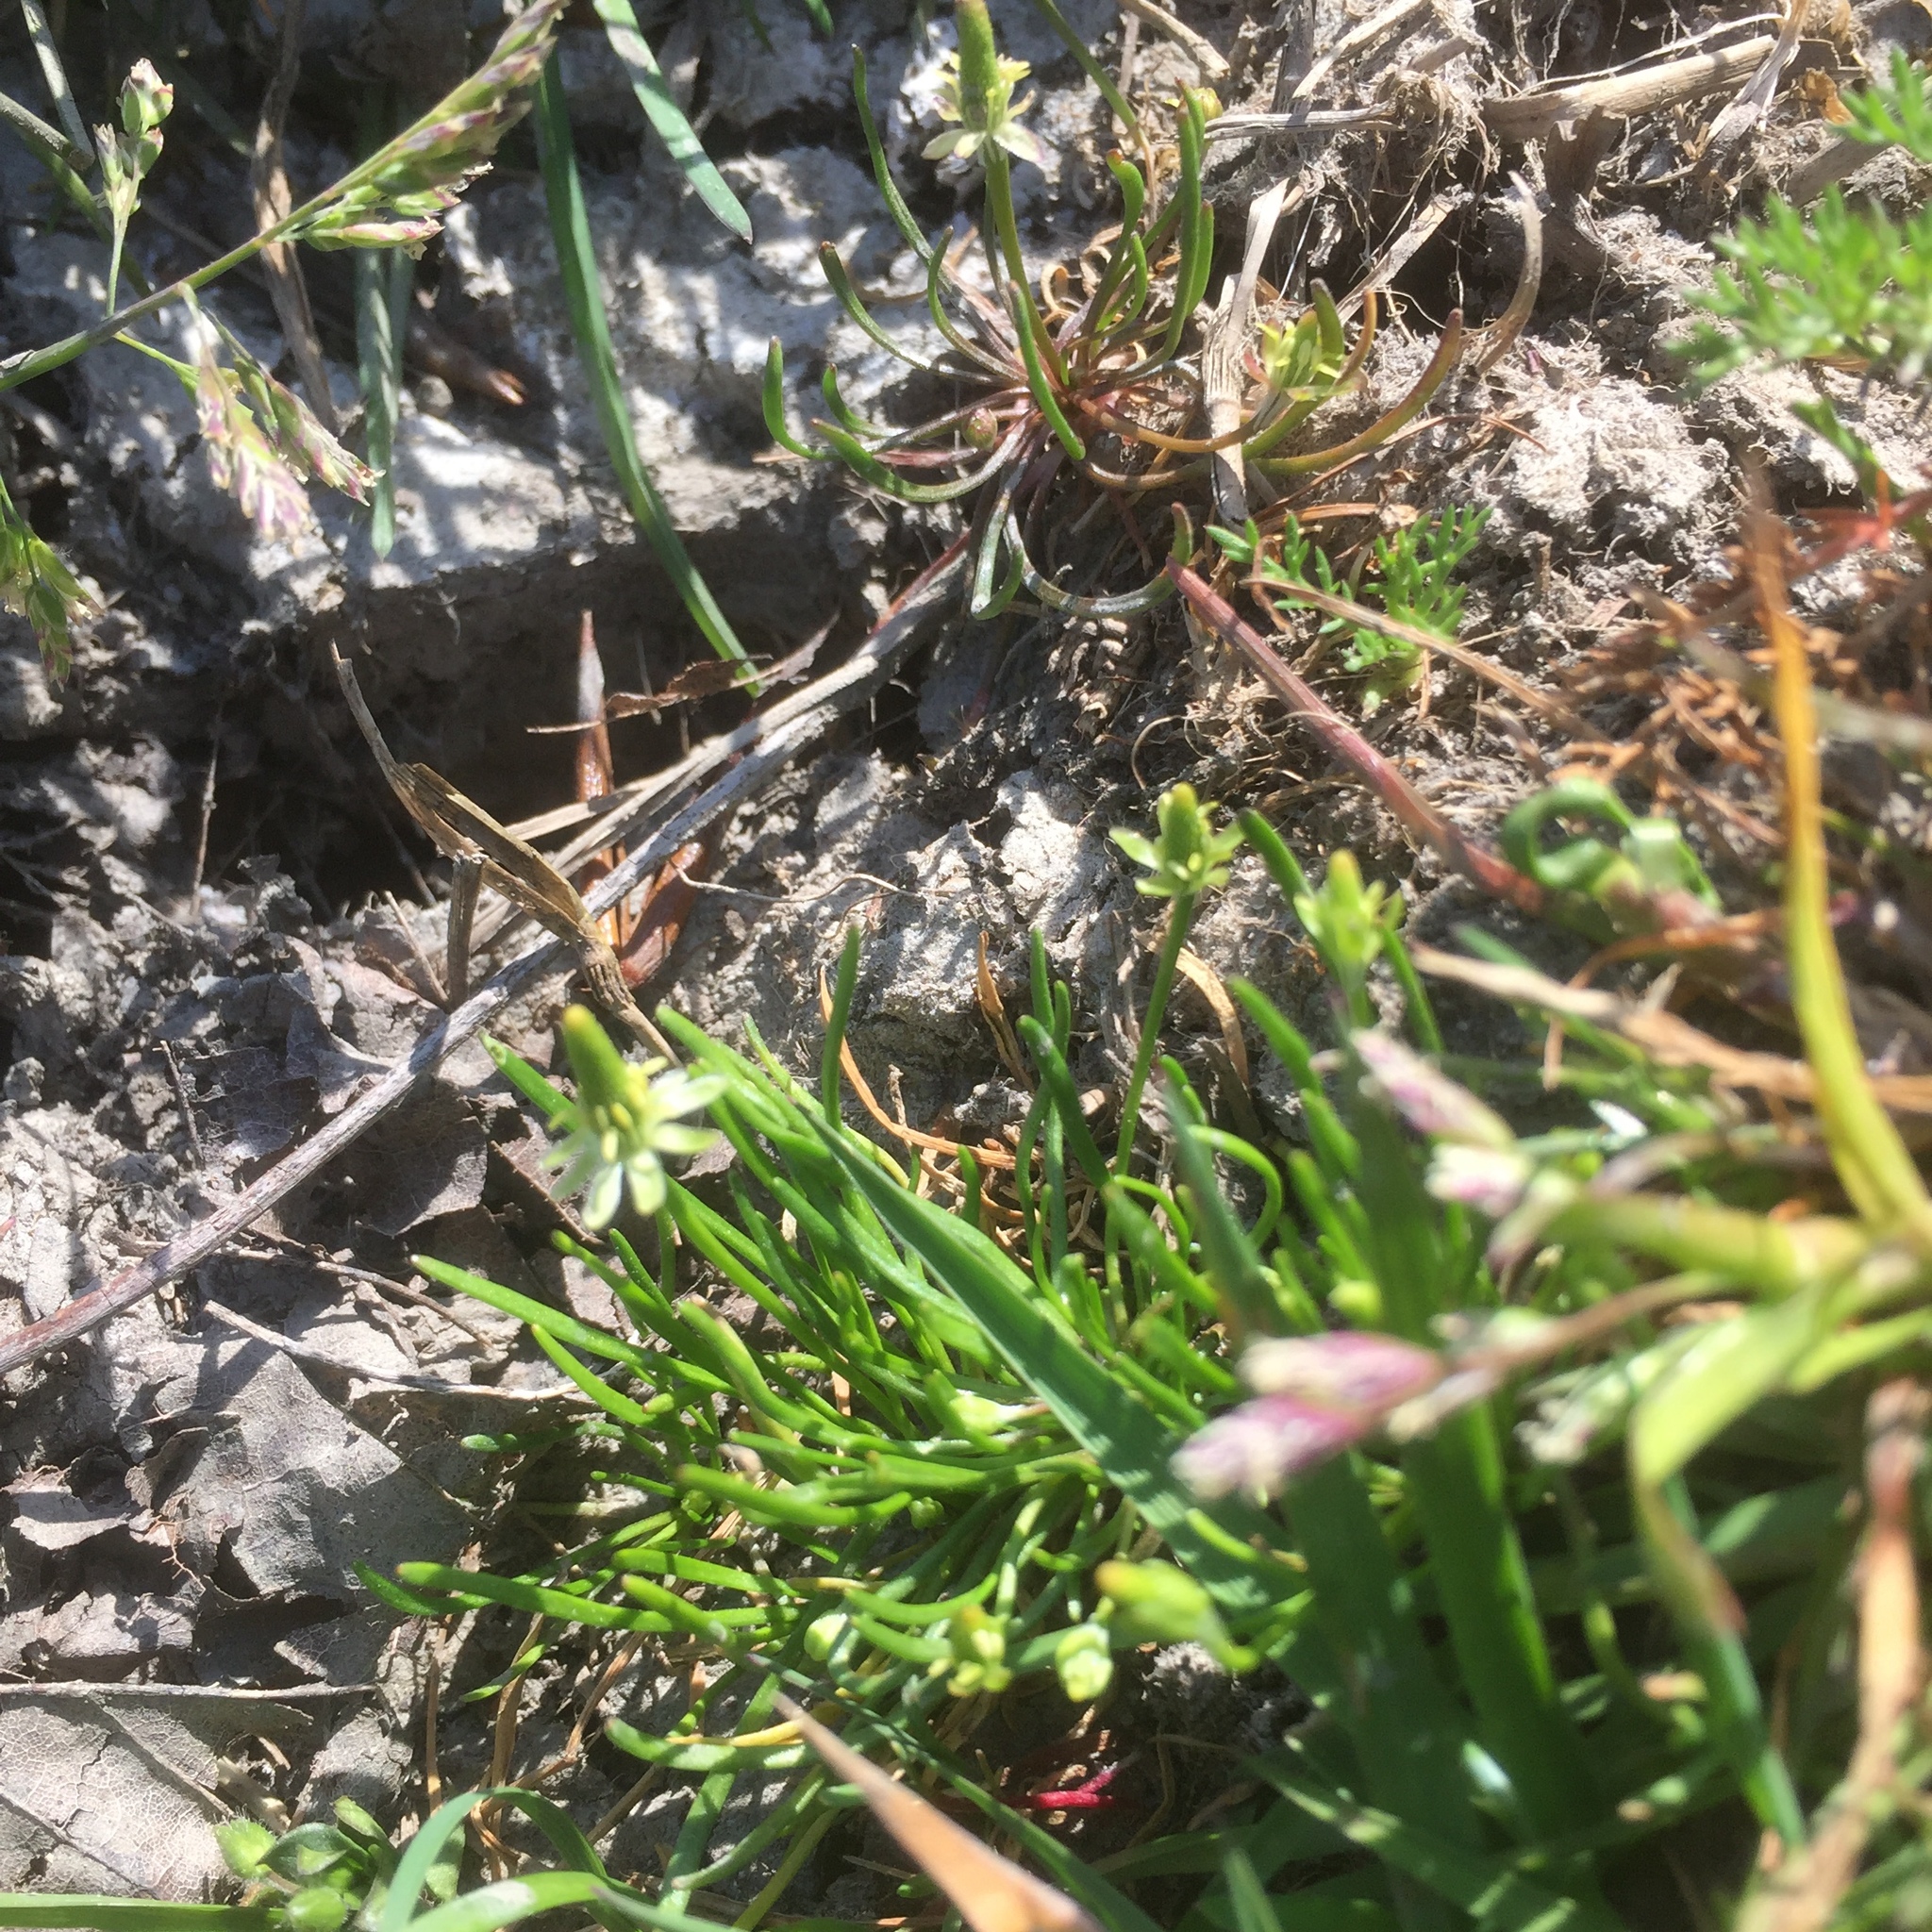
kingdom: Plantae
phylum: Tracheophyta
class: Magnoliopsida
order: Ranunculales
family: Ranunculaceae
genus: Myosurus
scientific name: Myosurus minimus
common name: Mousetail
